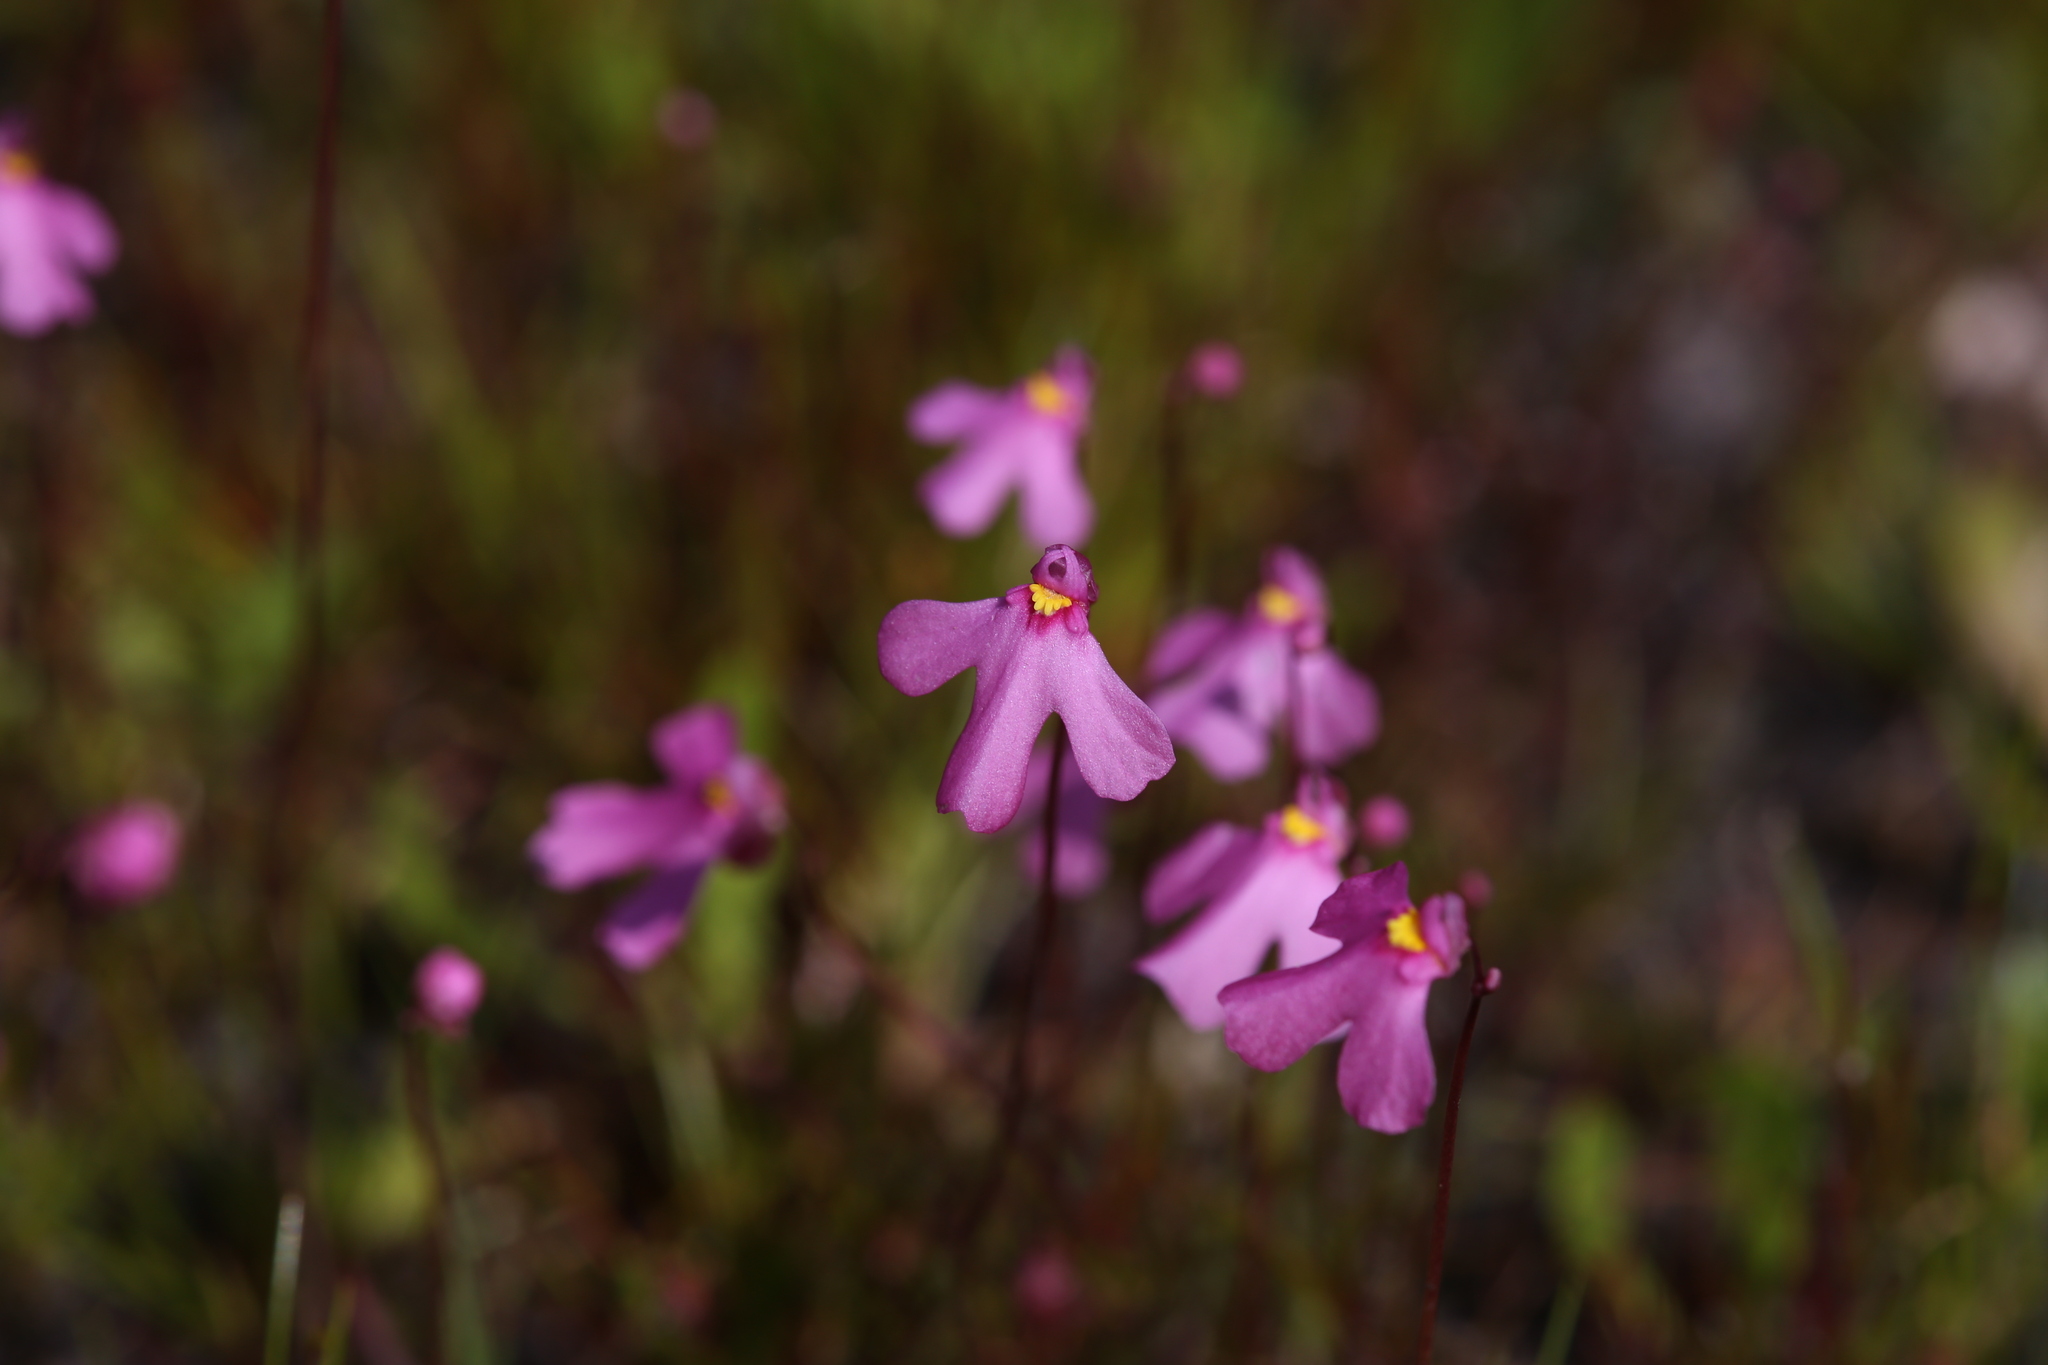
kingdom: Plantae
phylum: Tracheophyta
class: Magnoliopsida
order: Lamiales
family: Lentibulariaceae
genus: Utricularia
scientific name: Utricularia multifida
